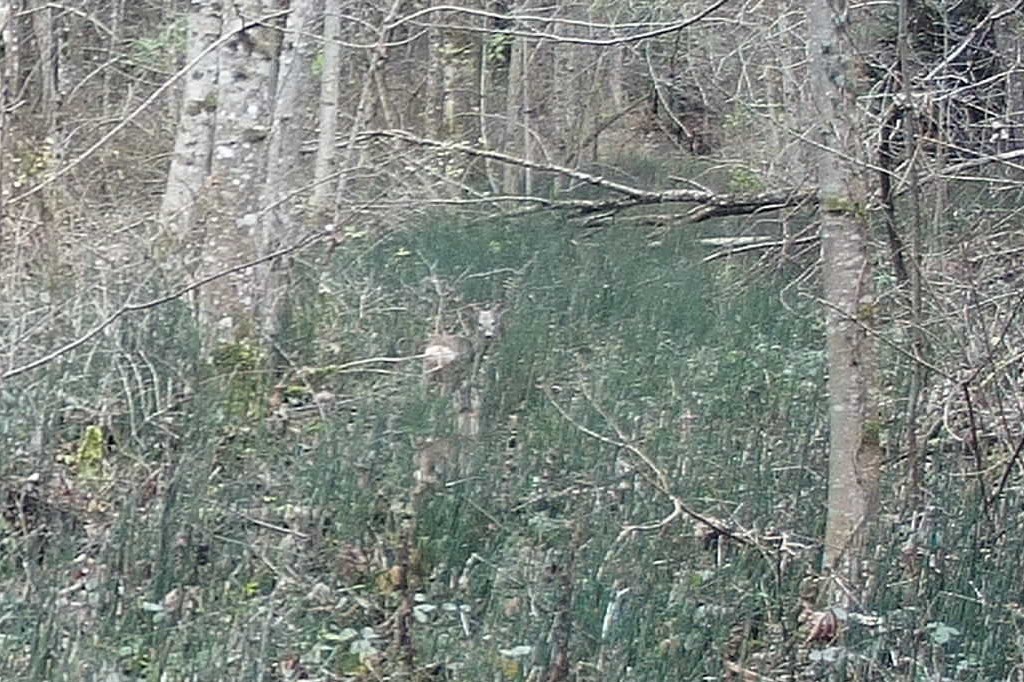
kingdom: Animalia
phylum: Chordata
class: Mammalia
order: Artiodactyla
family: Cervidae
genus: Capreolus
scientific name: Capreolus capreolus
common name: Western roe deer
